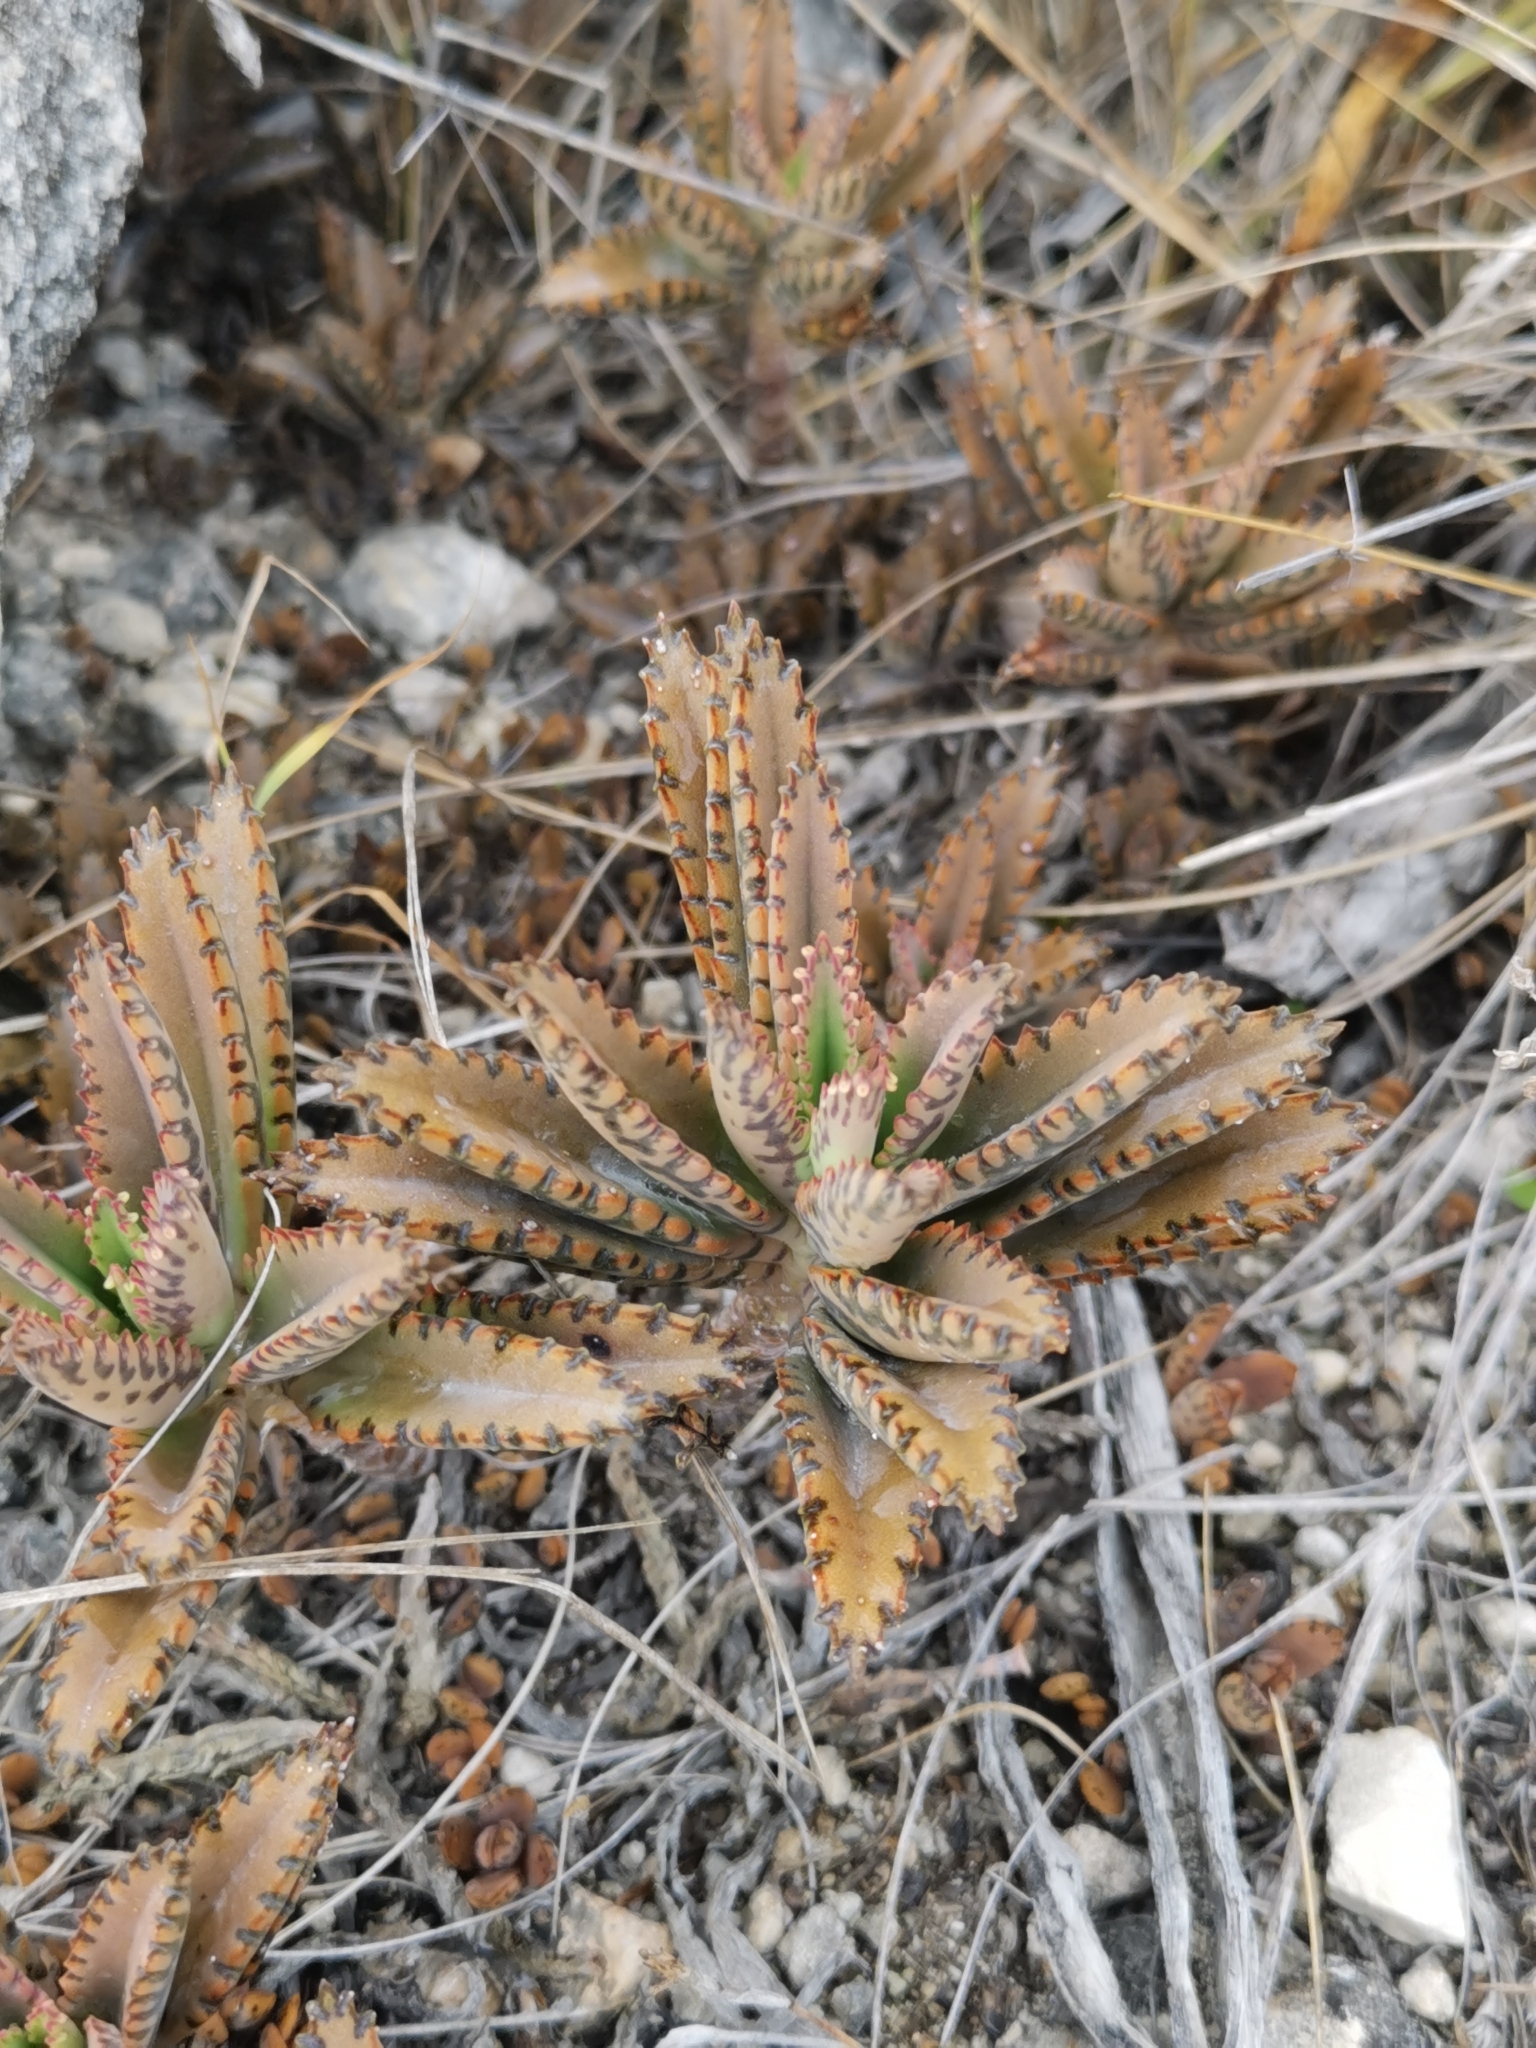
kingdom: Plantae
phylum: Tracheophyta
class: Magnoliopsida
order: Saxifragales
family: Crassulaceae
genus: Kalanchoe
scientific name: Kalanchoe houghtonii
